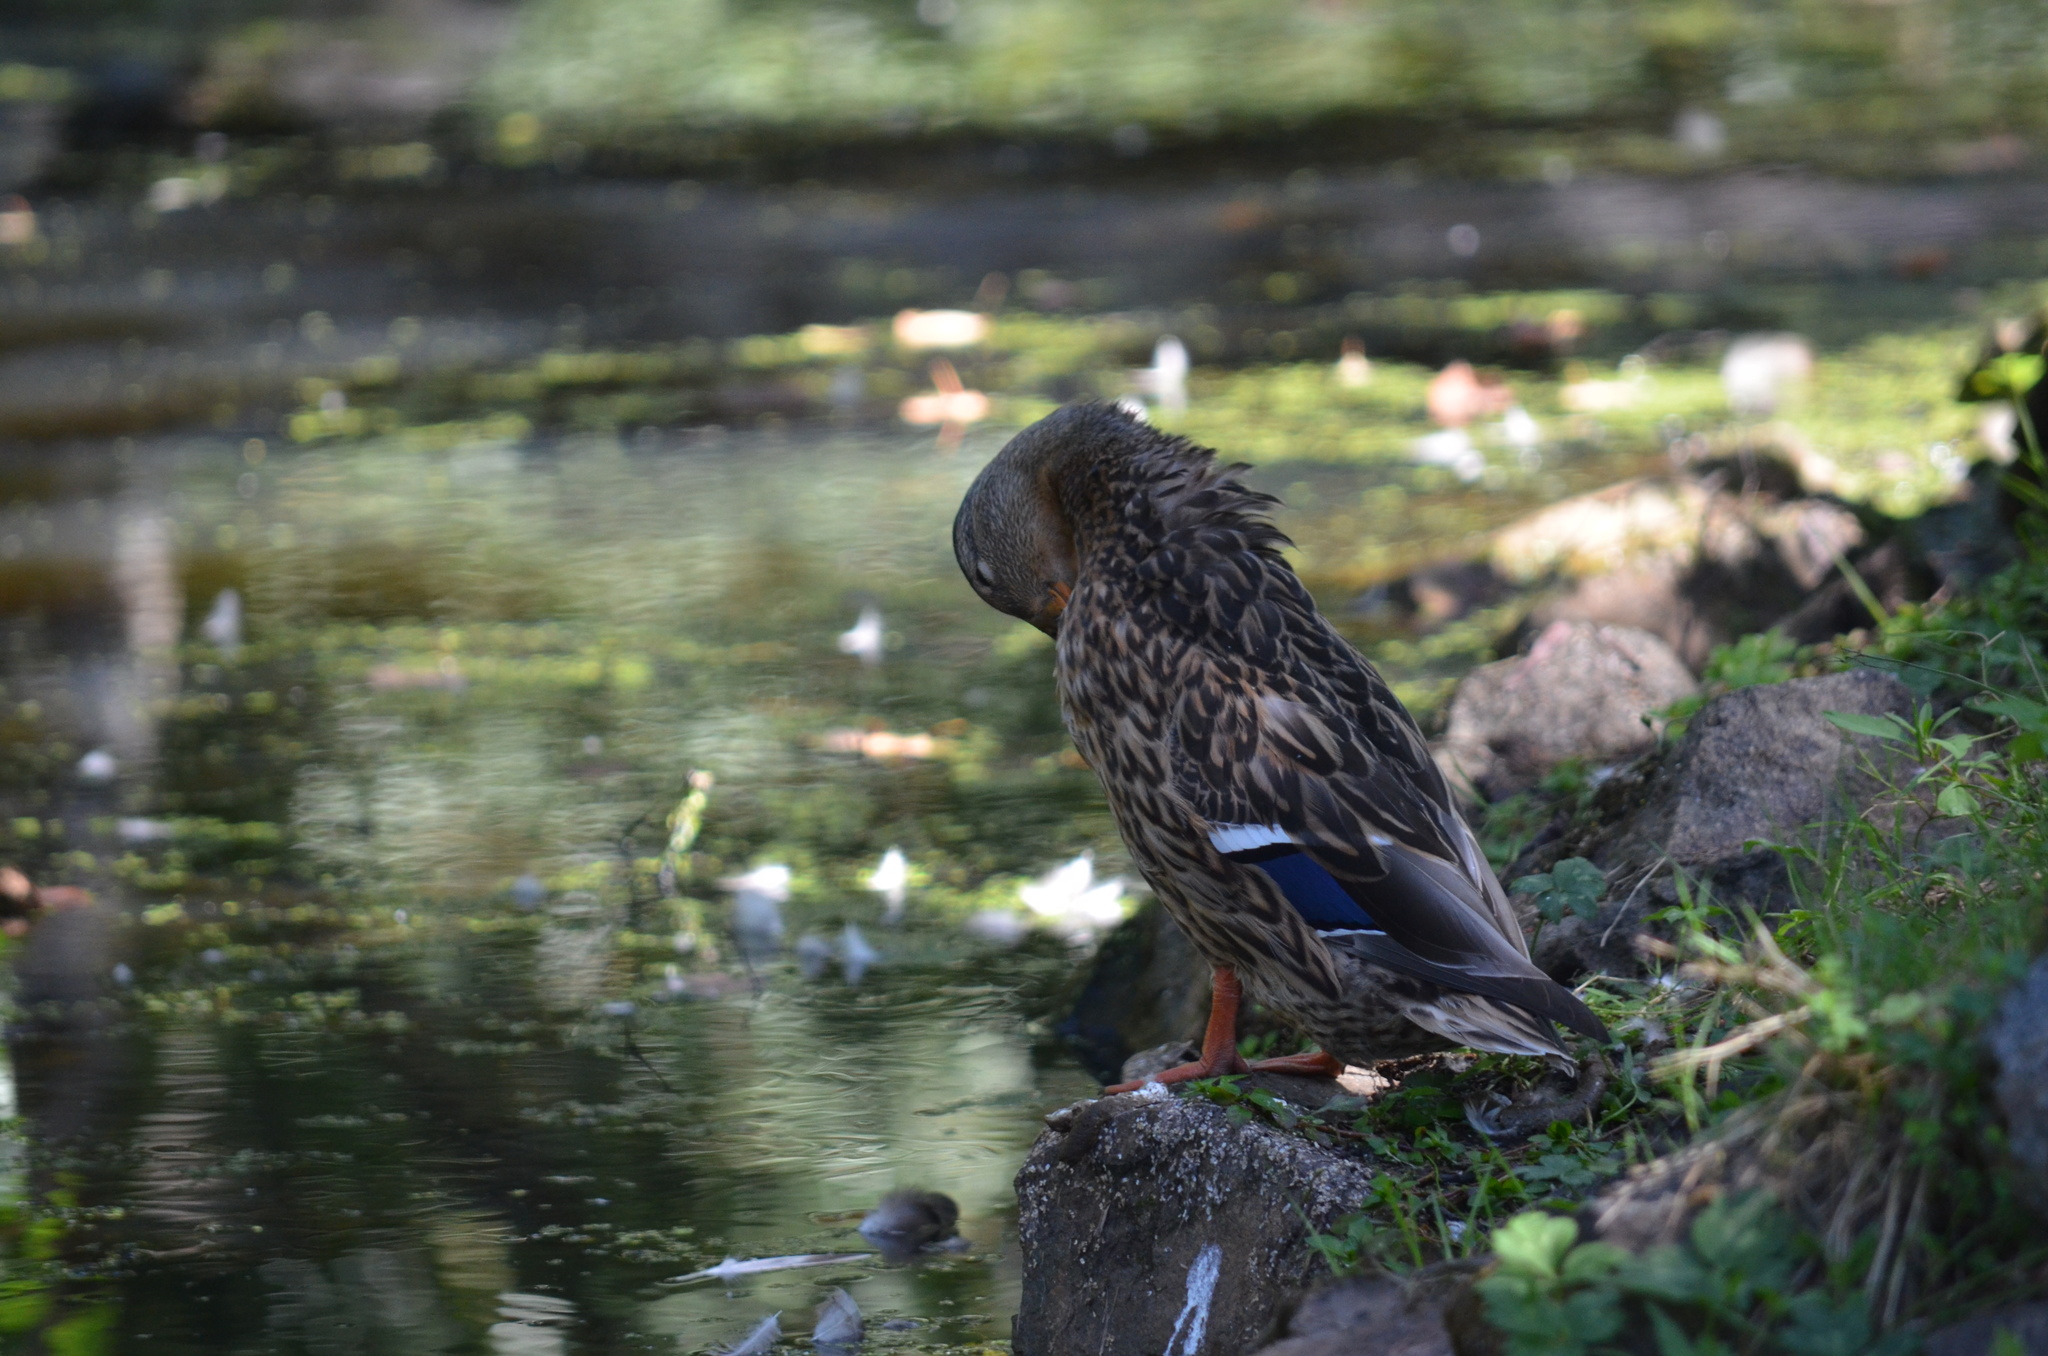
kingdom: Animalia
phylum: Chordata
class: Aves
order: Anseriformes
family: Anatidae
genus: Anas
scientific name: Anas platyrhynchos
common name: Mallard
